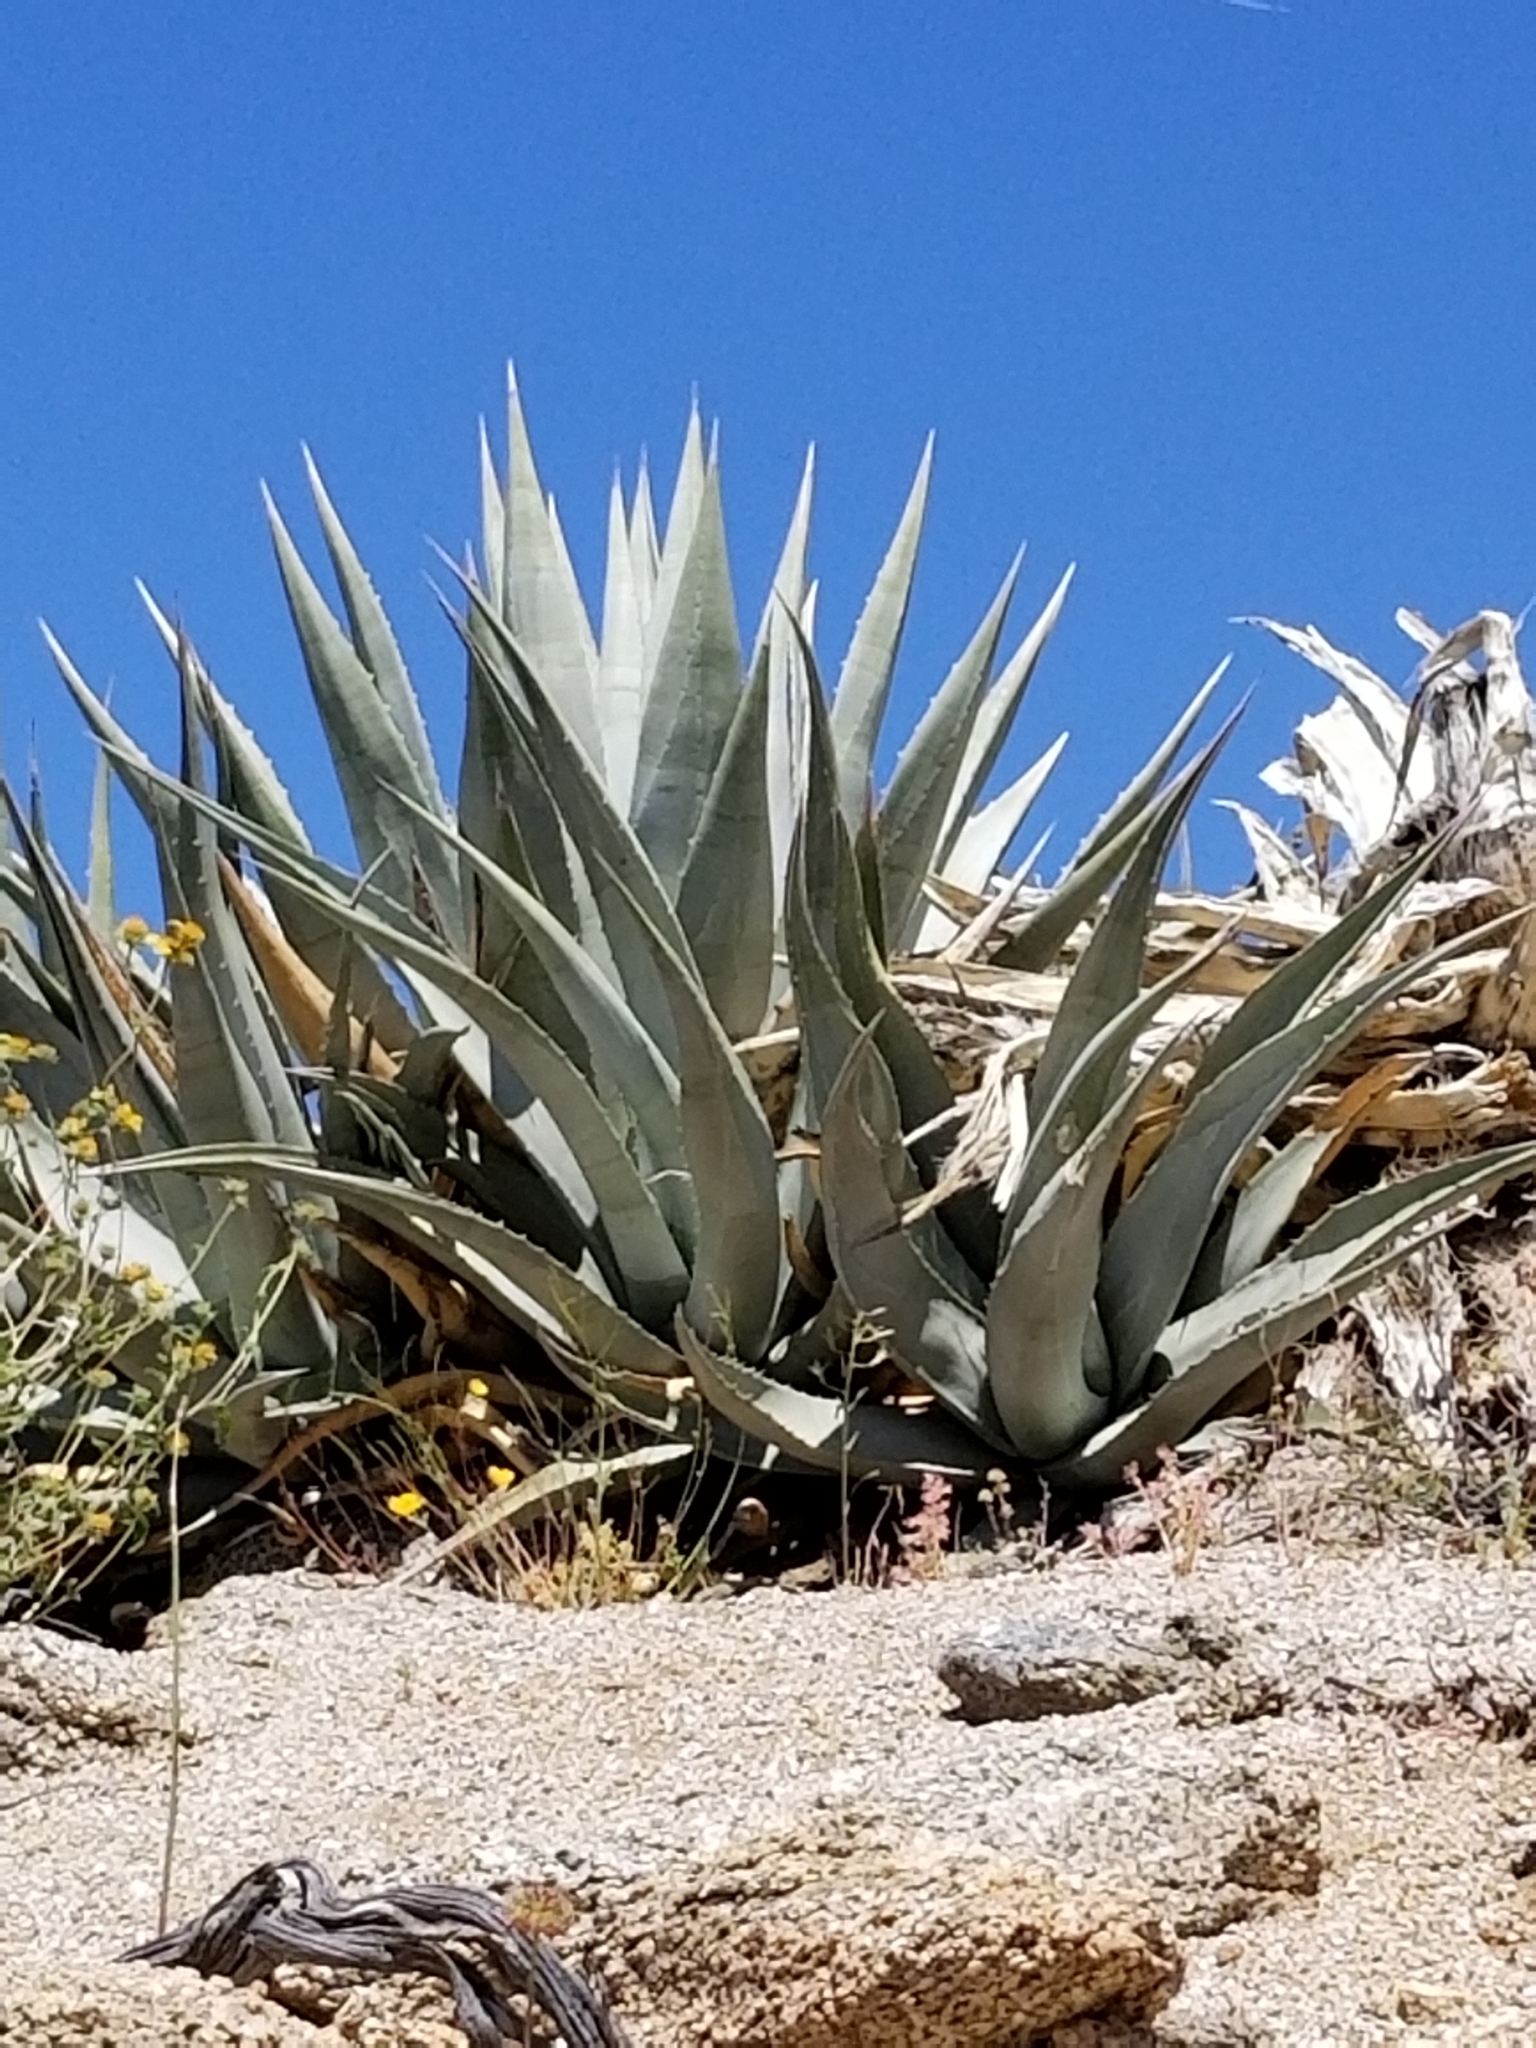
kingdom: Plantae
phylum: Tracheophyta
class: Liliopsida
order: Asparagales
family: Asparagaceae
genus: Agave
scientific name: Agave deserti
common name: Desert agave
